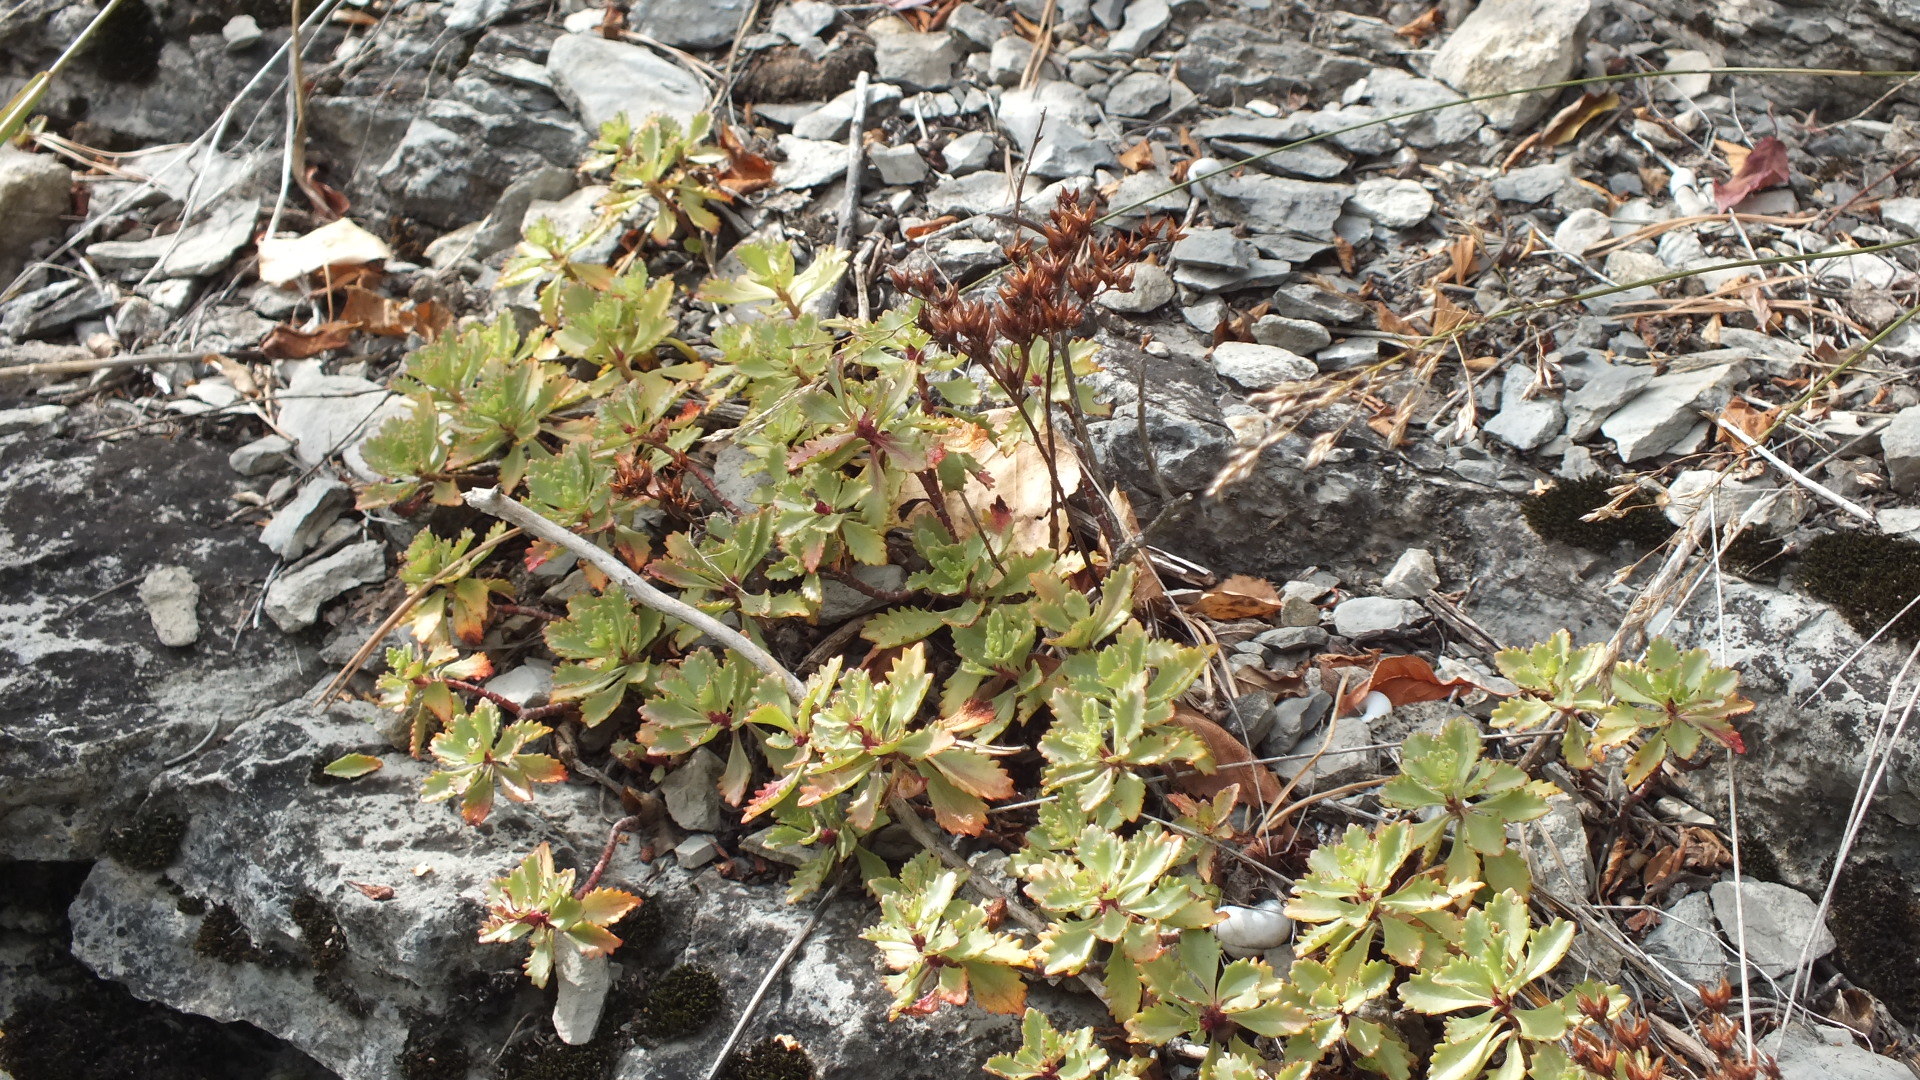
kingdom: Plantae
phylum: Tracheophyta
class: Magnoliopsida
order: Saxifragales
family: Crassulaceae
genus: Phedimus
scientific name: Phedimus hybridus
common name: Hybrid stonecrop
